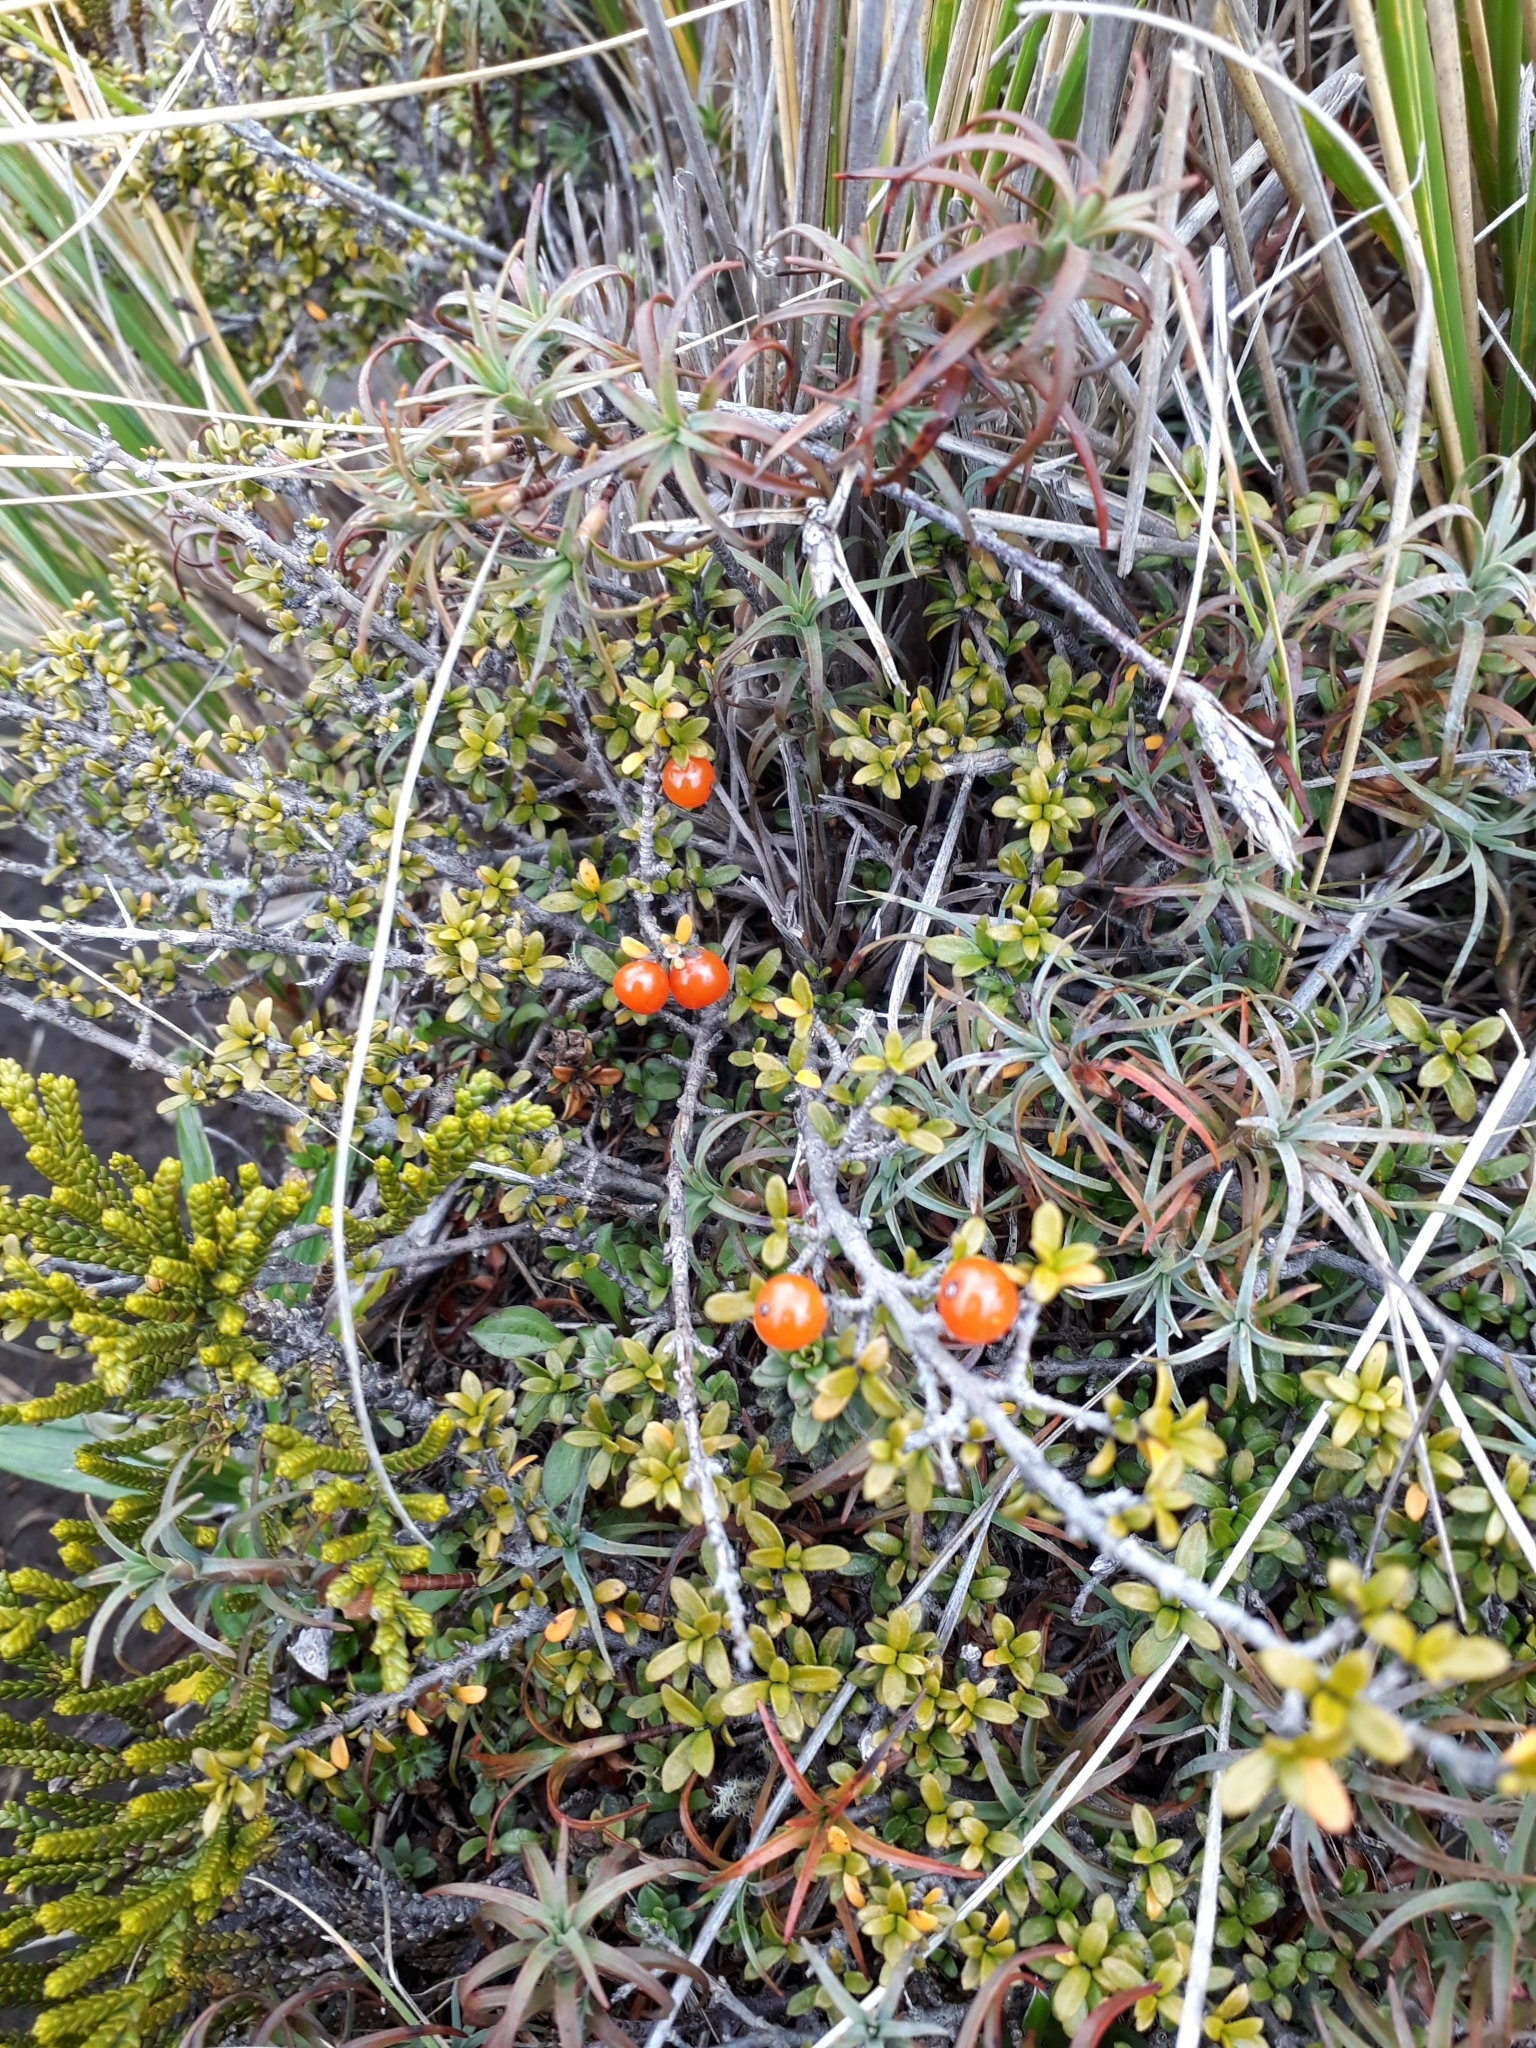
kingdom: Plantae
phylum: Tracheophyta
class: Magnoliopsida
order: Gentianales
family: Rubiaceae
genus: Coprosma
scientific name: Coprosma pseudocuneata
